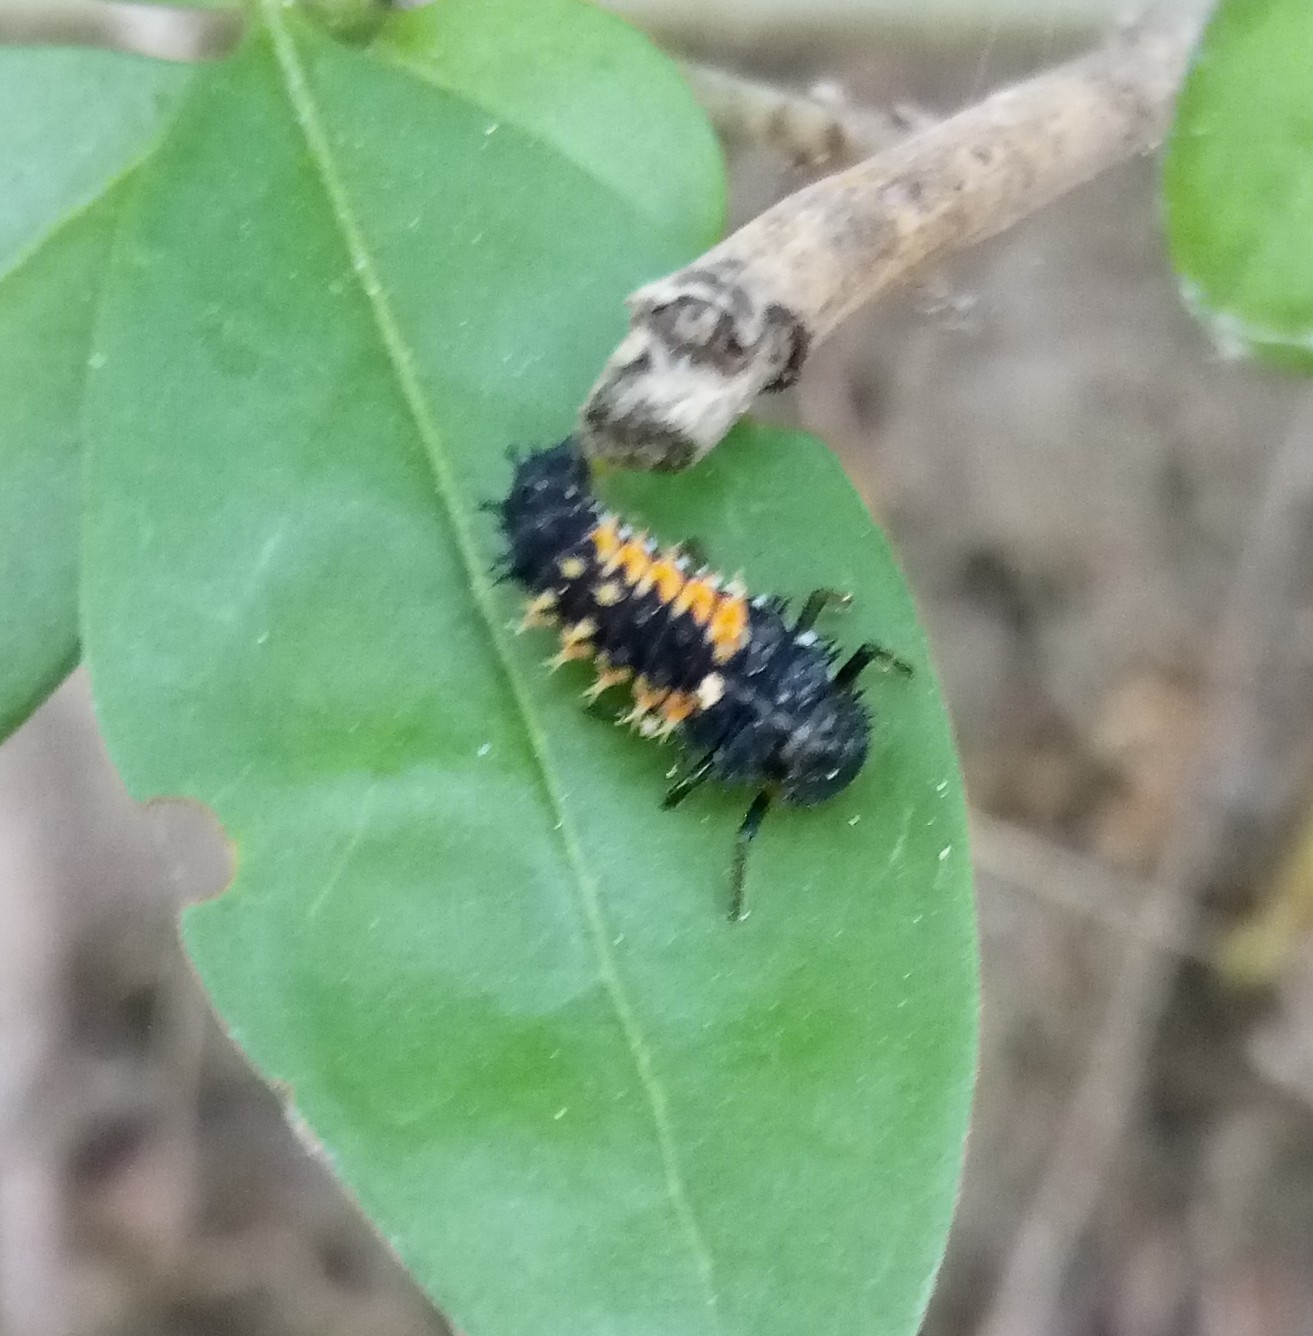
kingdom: Animalia
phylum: Arthropoda
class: Insecta
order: Coleoptera
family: Coccinellidae
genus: Harmonia
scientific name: Harmonia axyridis
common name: Harlequin ladybird
